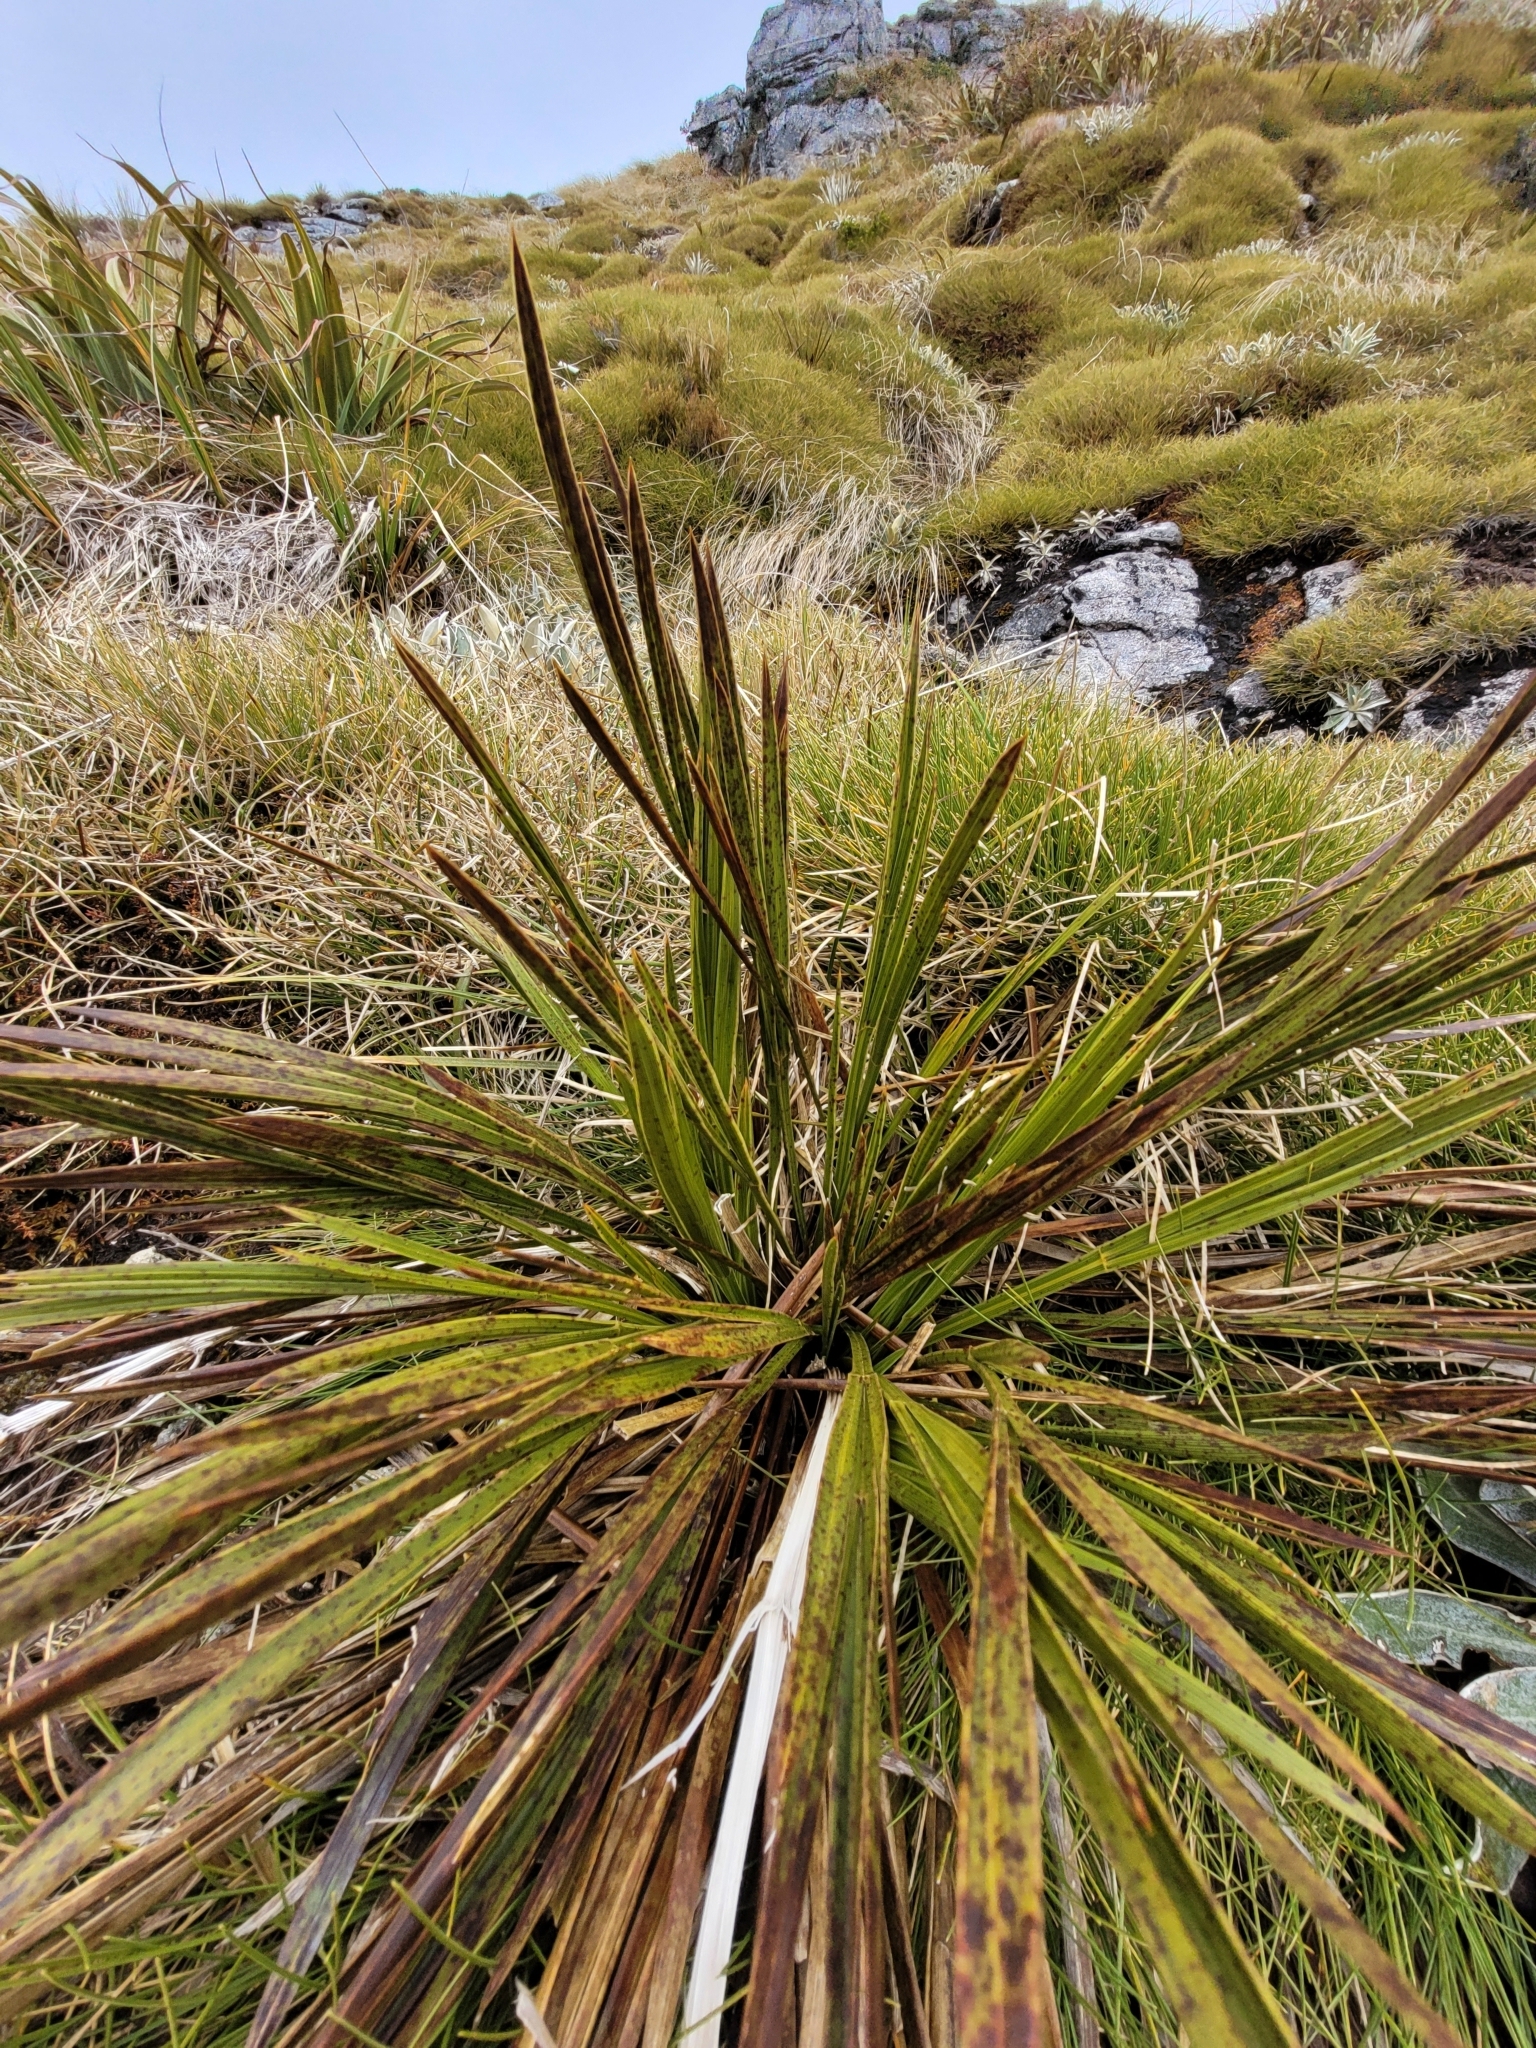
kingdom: Plantae
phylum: Tracheophyta
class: Magnoliopsida
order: Apiales
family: Apiaceae
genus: Aciphylla
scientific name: Aciphylla trifoliolata
